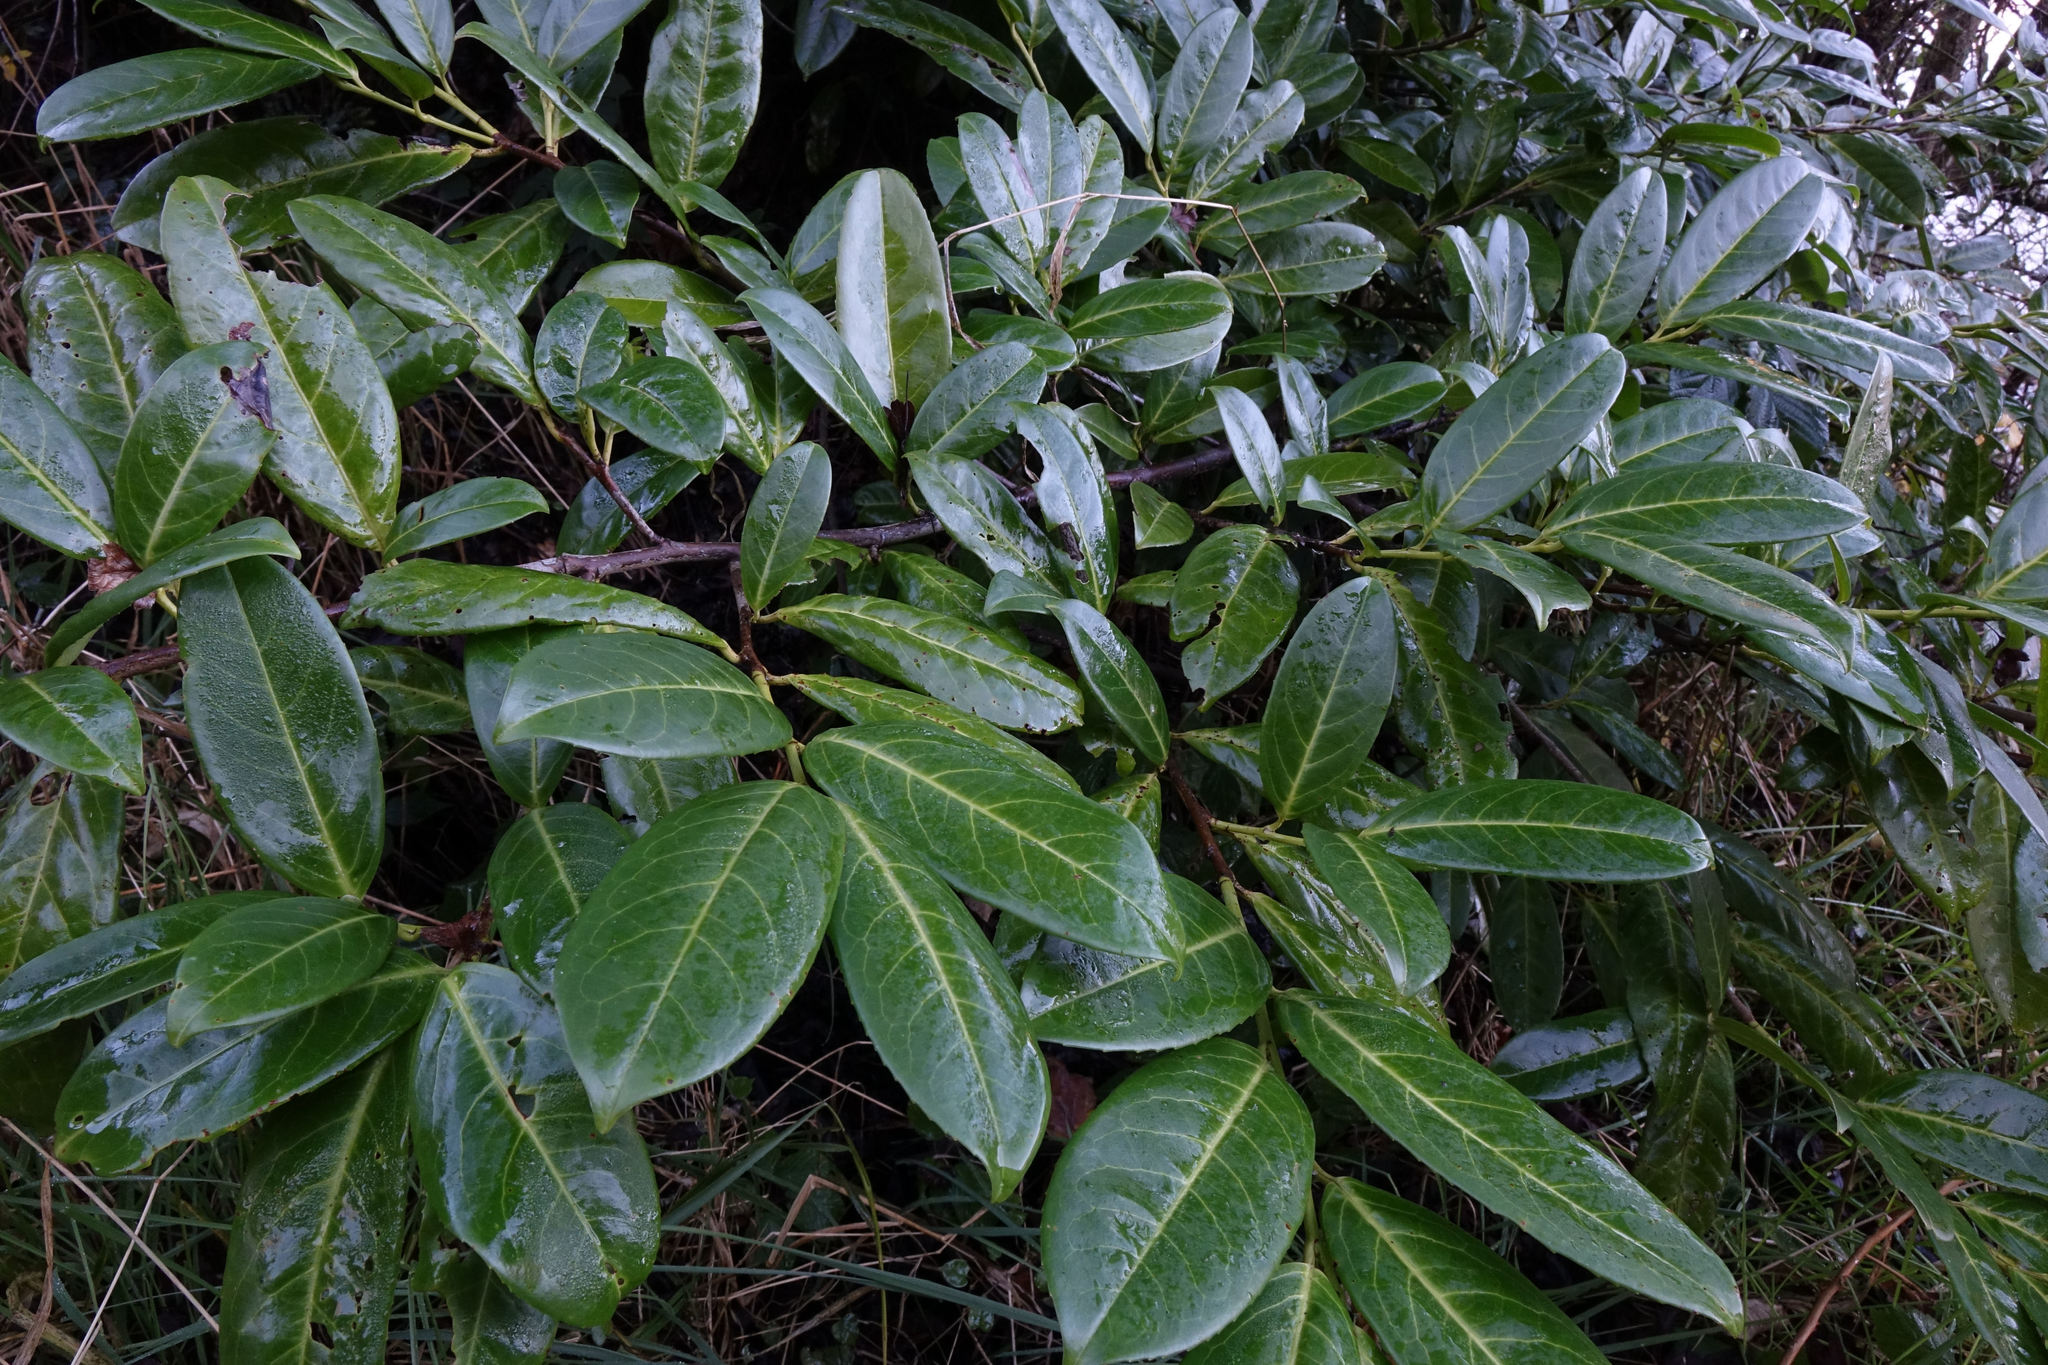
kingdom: Plantae
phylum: Tracheophyta
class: Magnoliopsida
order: Rosales
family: Rosaceae
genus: Prunus
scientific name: Prunus laurocerasus
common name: Cherry laurel
